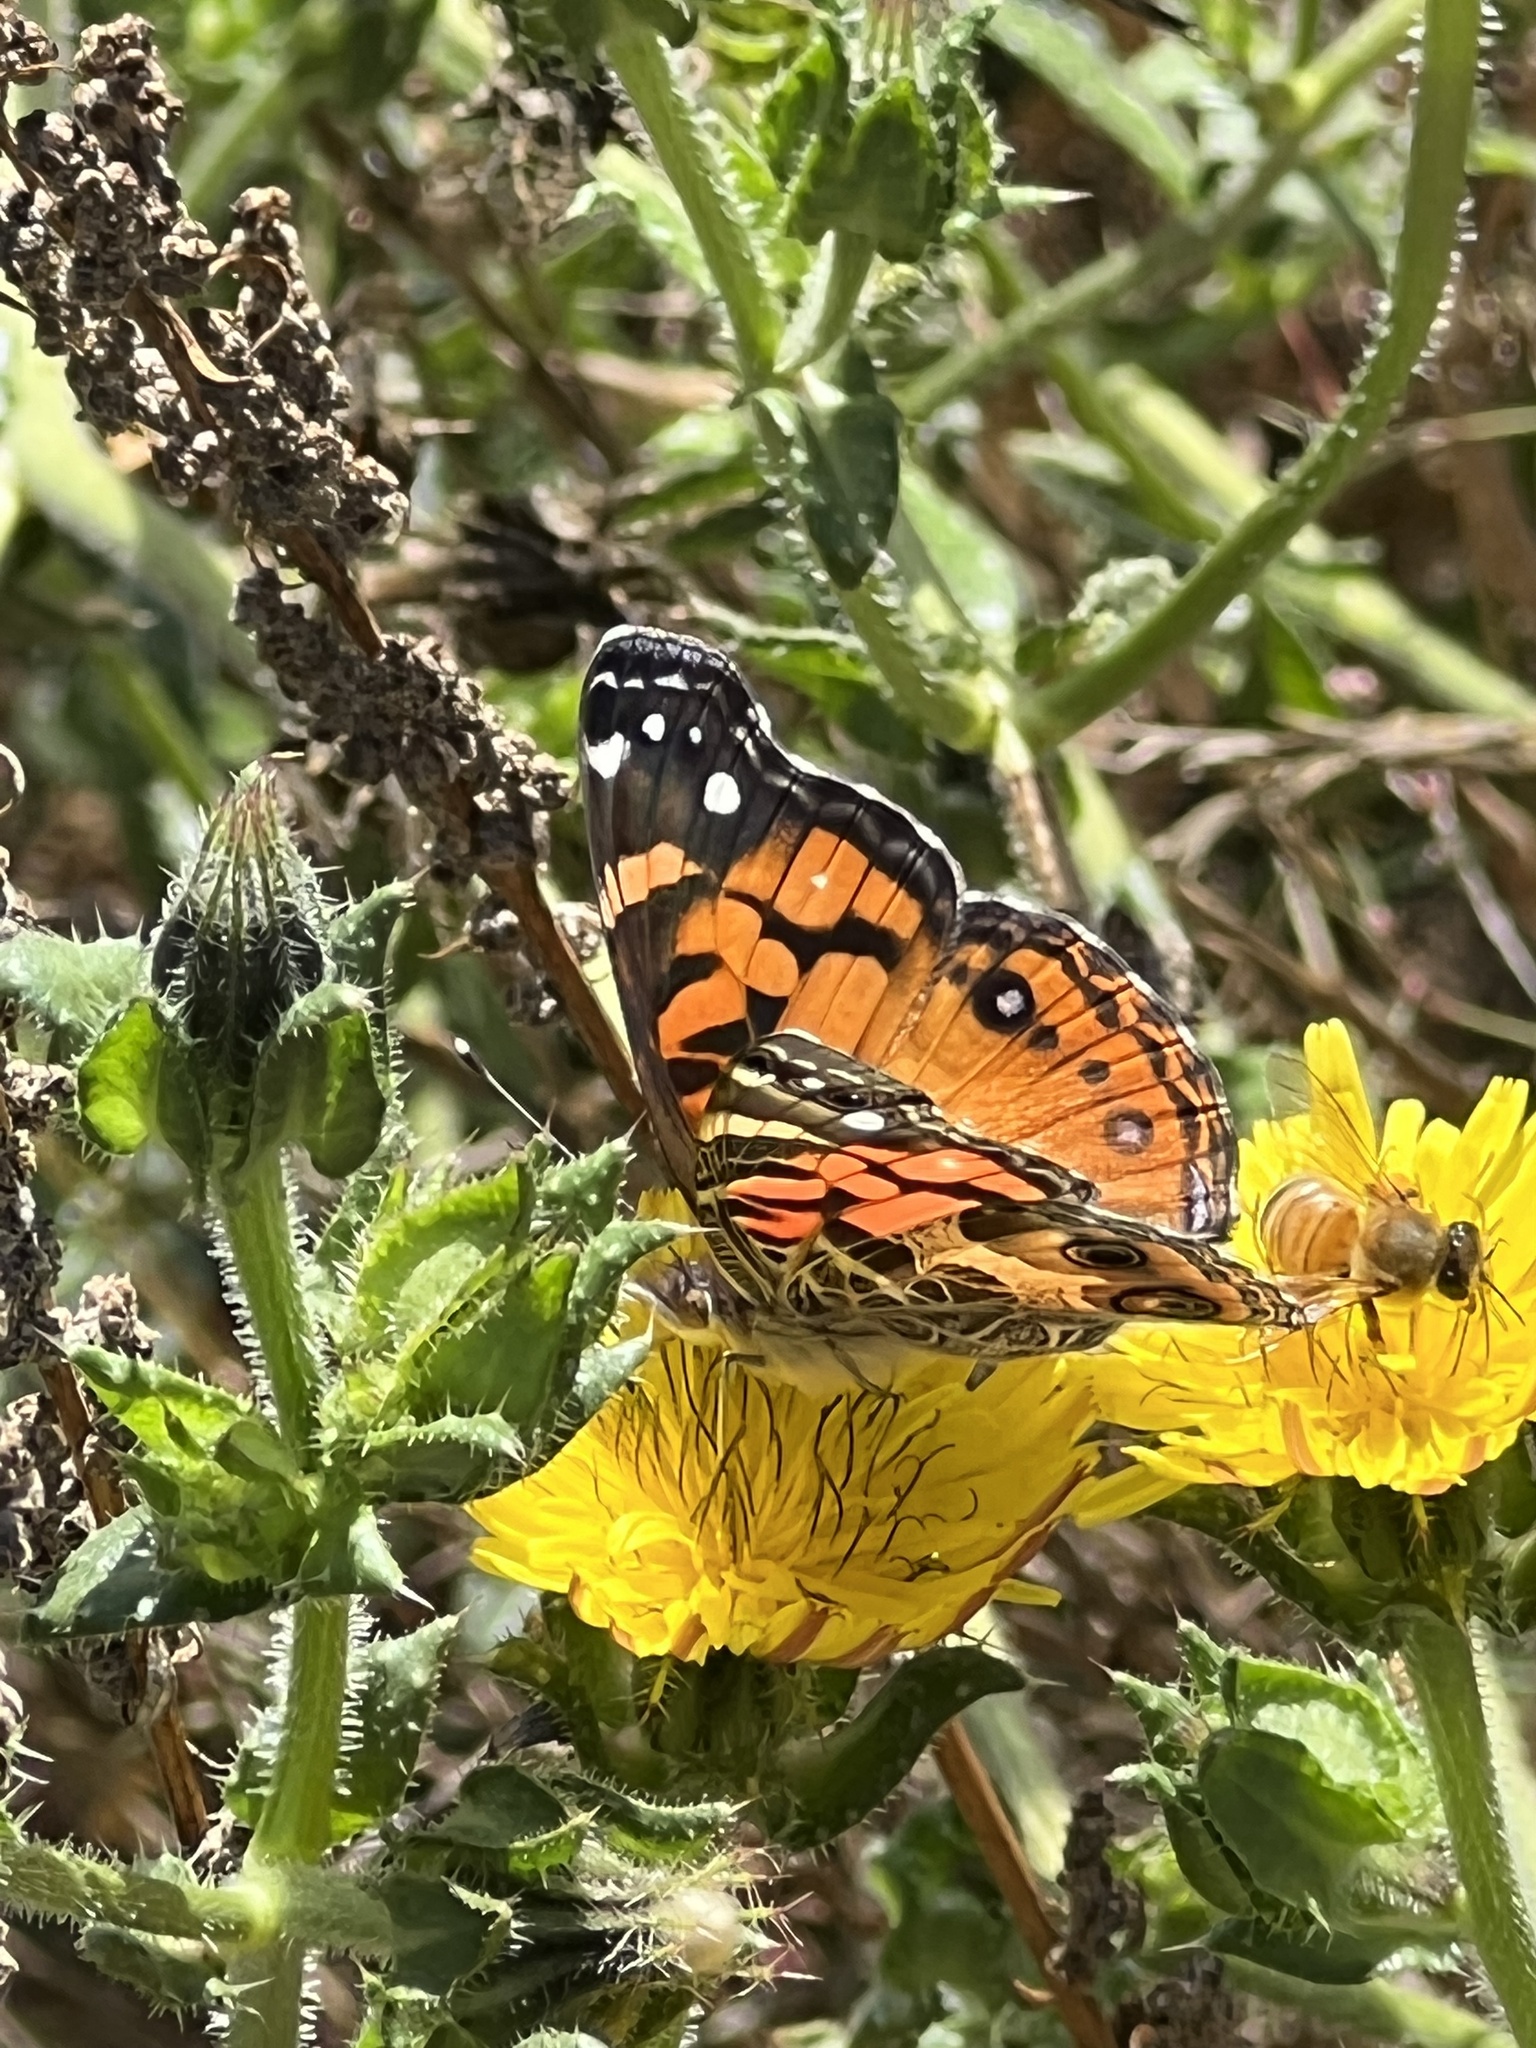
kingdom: Animalia
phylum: Arthropoda
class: Insecta
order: Lepidoptera
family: Nymphalidae
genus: Vanessa
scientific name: Vanessa virginiensis
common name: American lady
